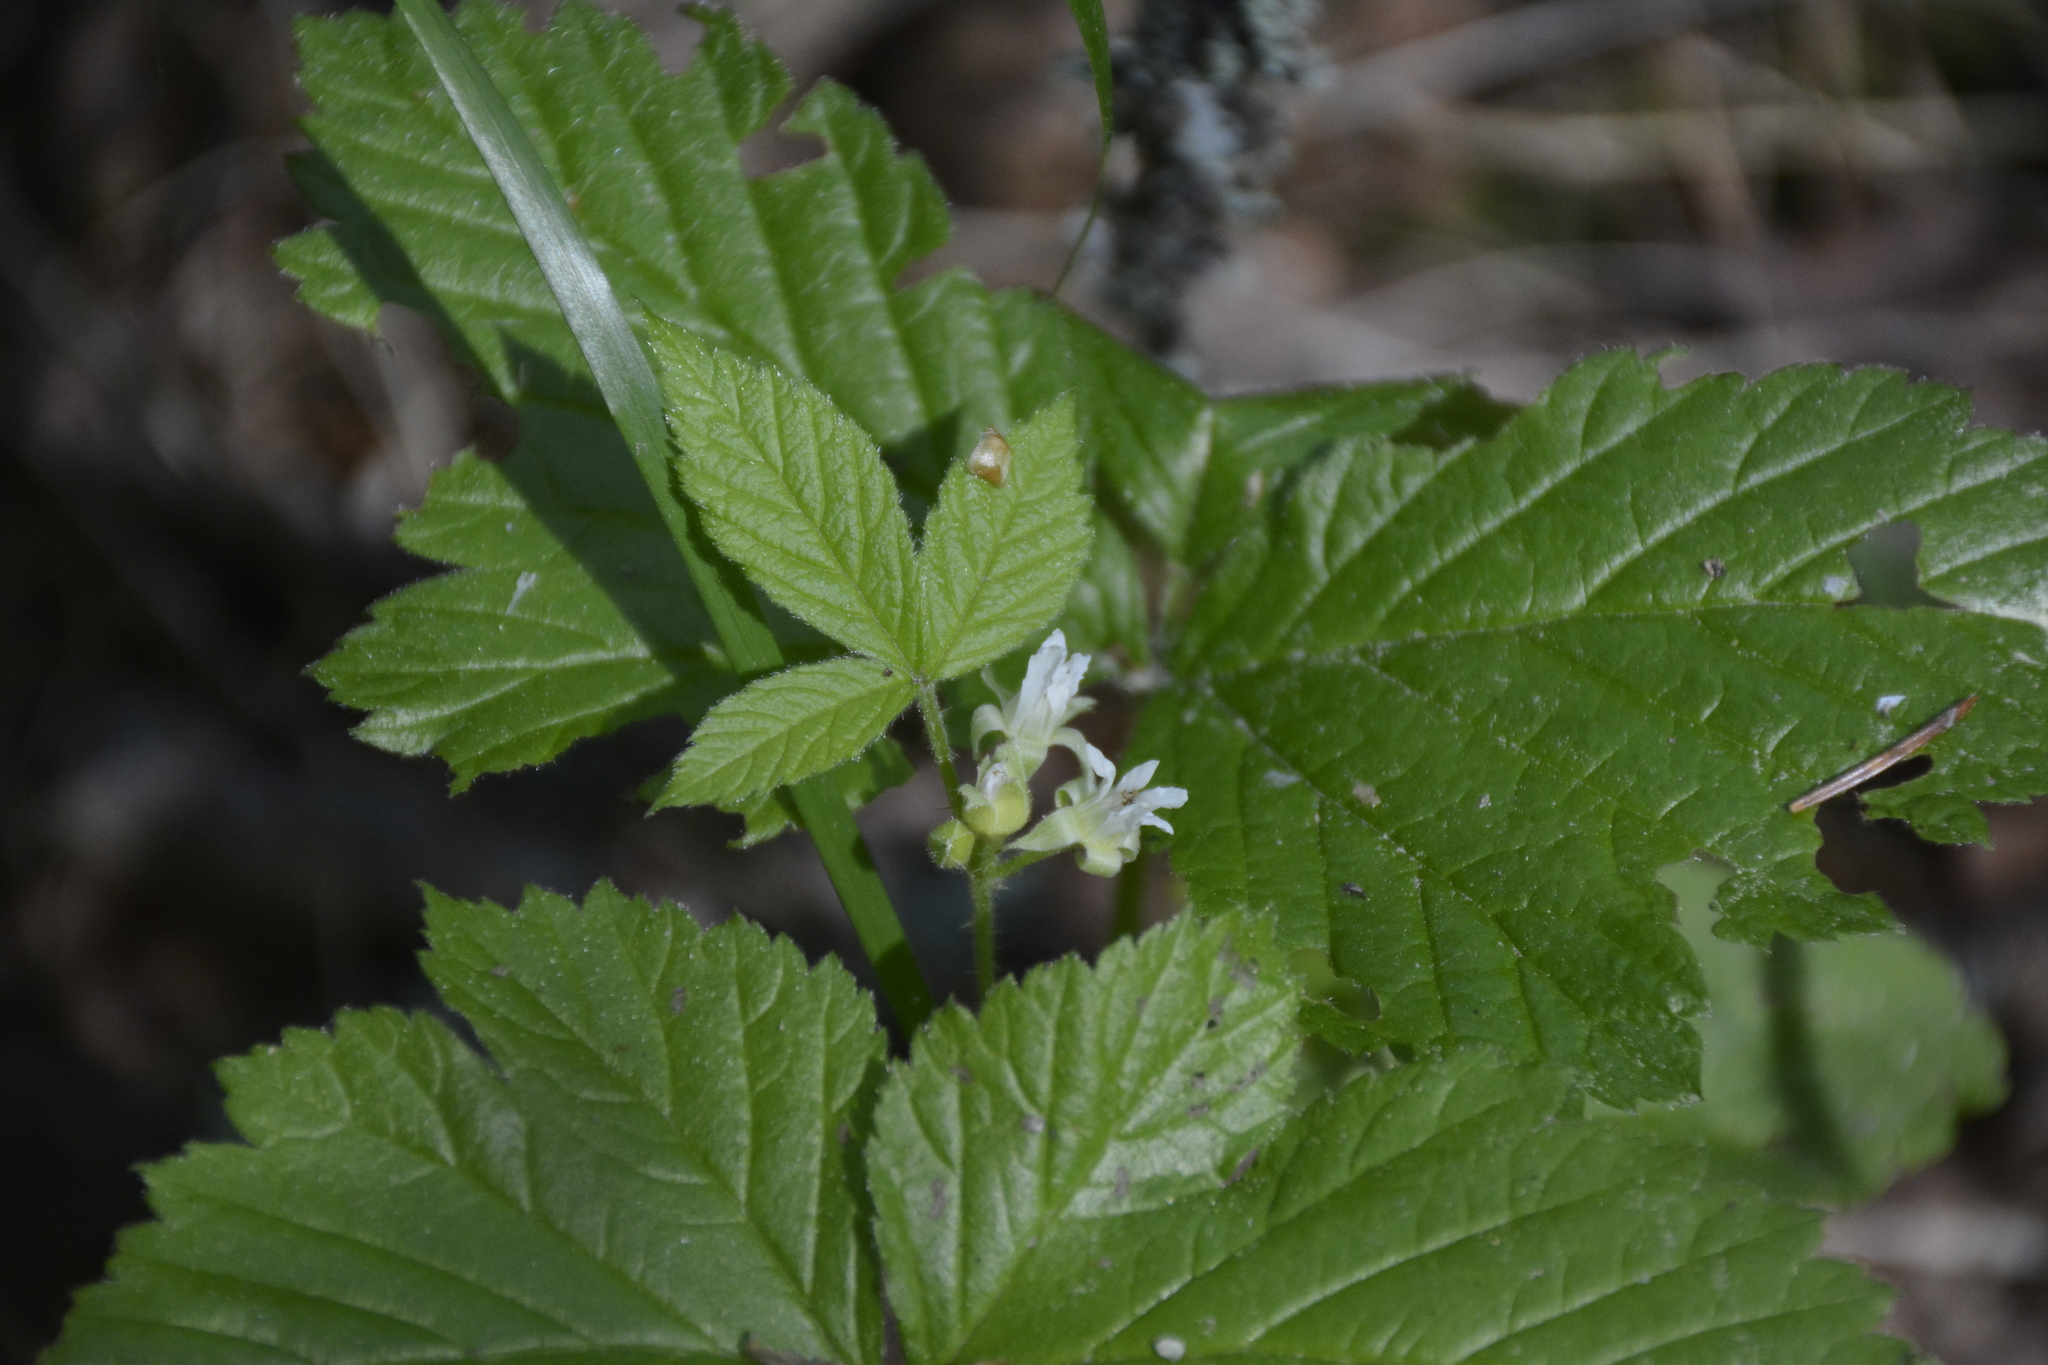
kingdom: Plantae
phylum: Tracheophyta
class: Magnoliopsida
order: Rosales
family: Rosaceae
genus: Rubus
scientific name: Rubus saxatilis
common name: Stone bramble
